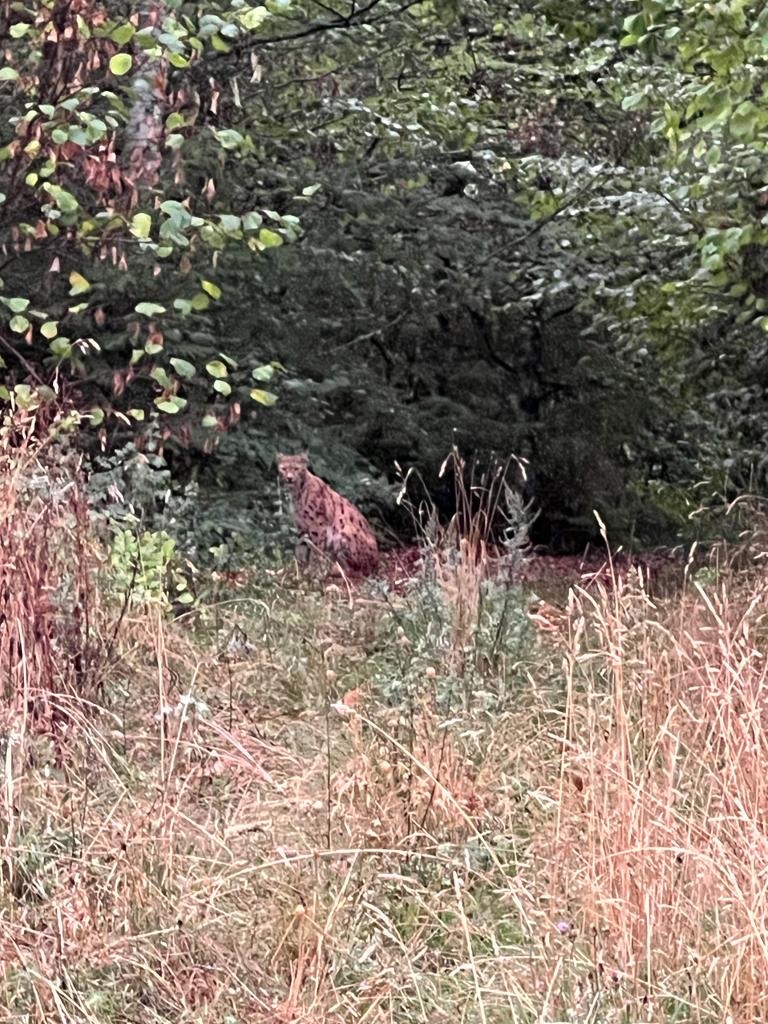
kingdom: Animalia
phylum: Chordata
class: Mammalia
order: Carnivora
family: Felidae
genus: Lynx
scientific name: Lynx lynx
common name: Eurasian lynx
